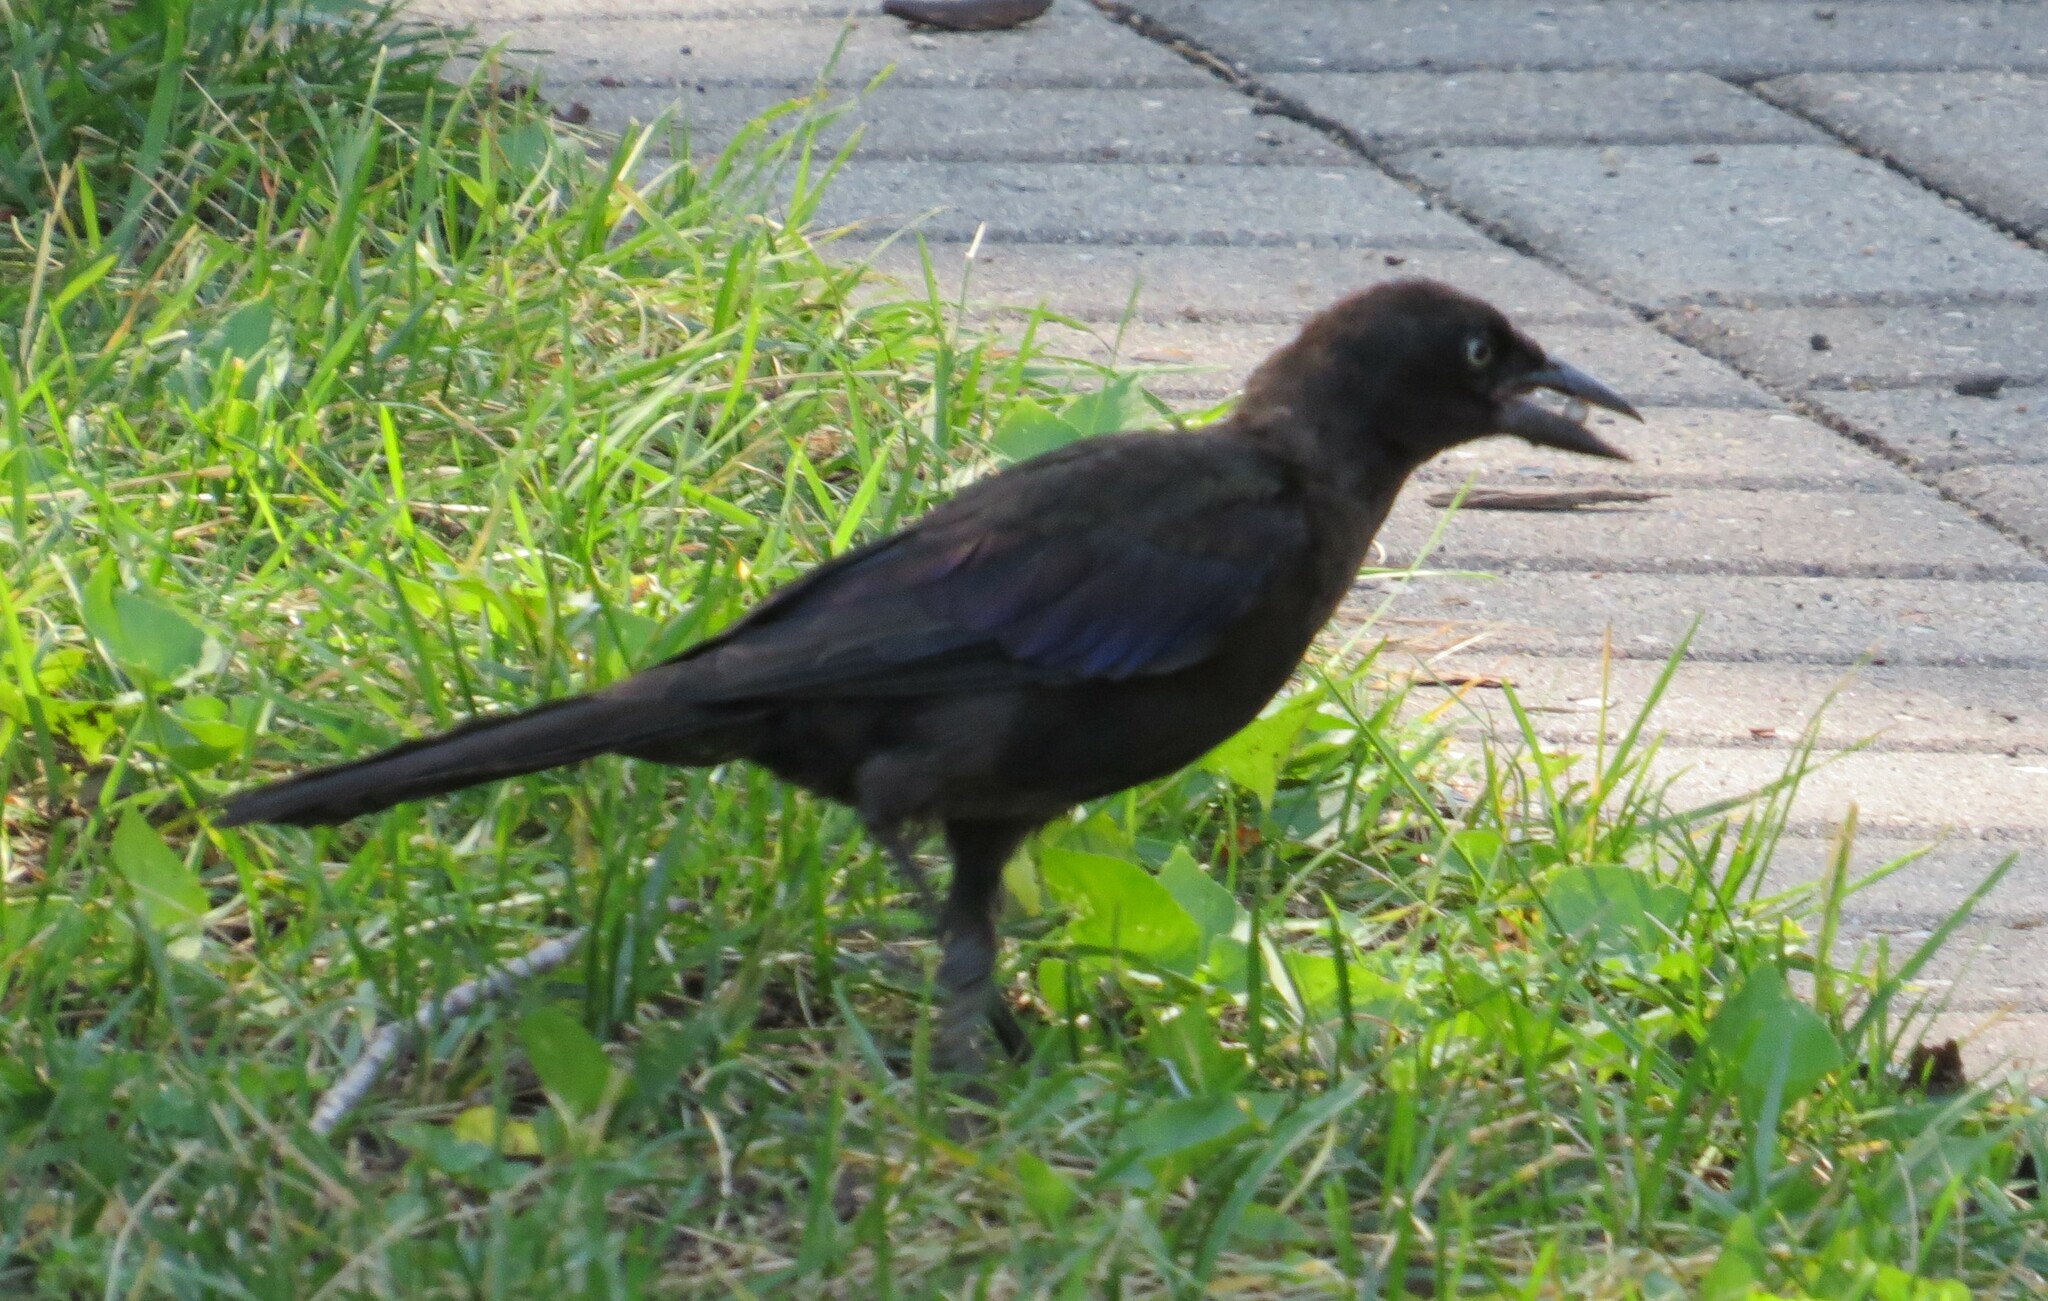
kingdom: Animalia
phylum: Chordata
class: Aves
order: Passeriformes
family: Icteridae
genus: Quiscalus
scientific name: Quiscalus quiscula
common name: Common grackle
